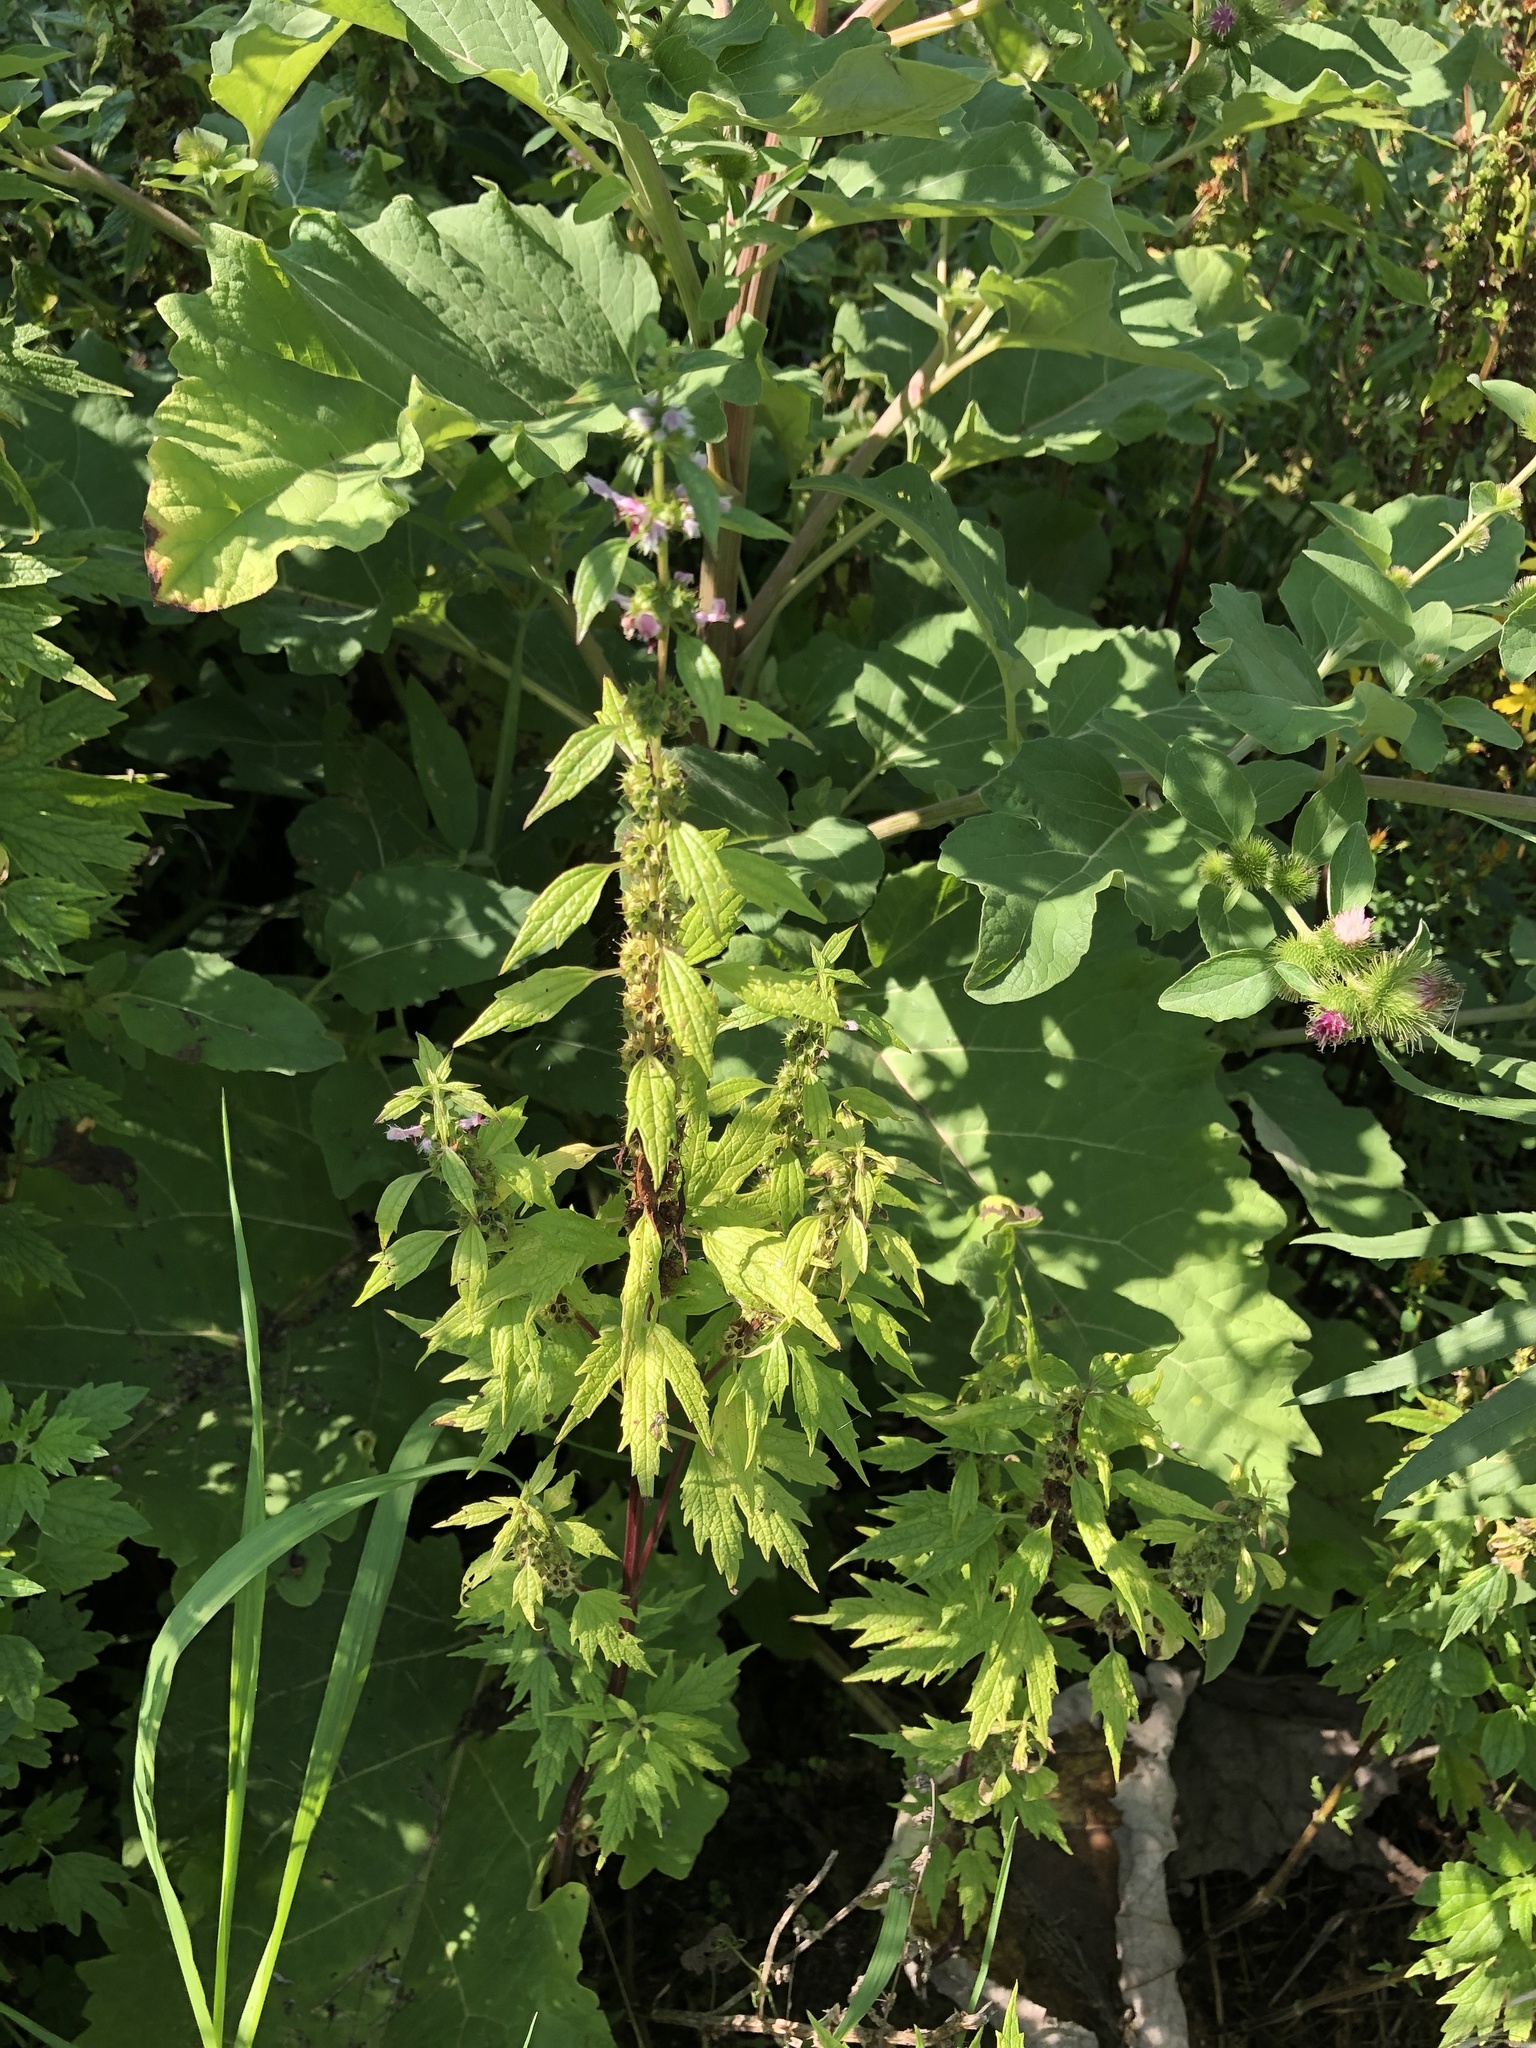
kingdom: Plantae
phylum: Tracheophyta
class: Magnoliopsida
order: Lamiales
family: Lamiaceae
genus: Leonurus
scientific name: Leonurus cardiaca
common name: Motherwort
